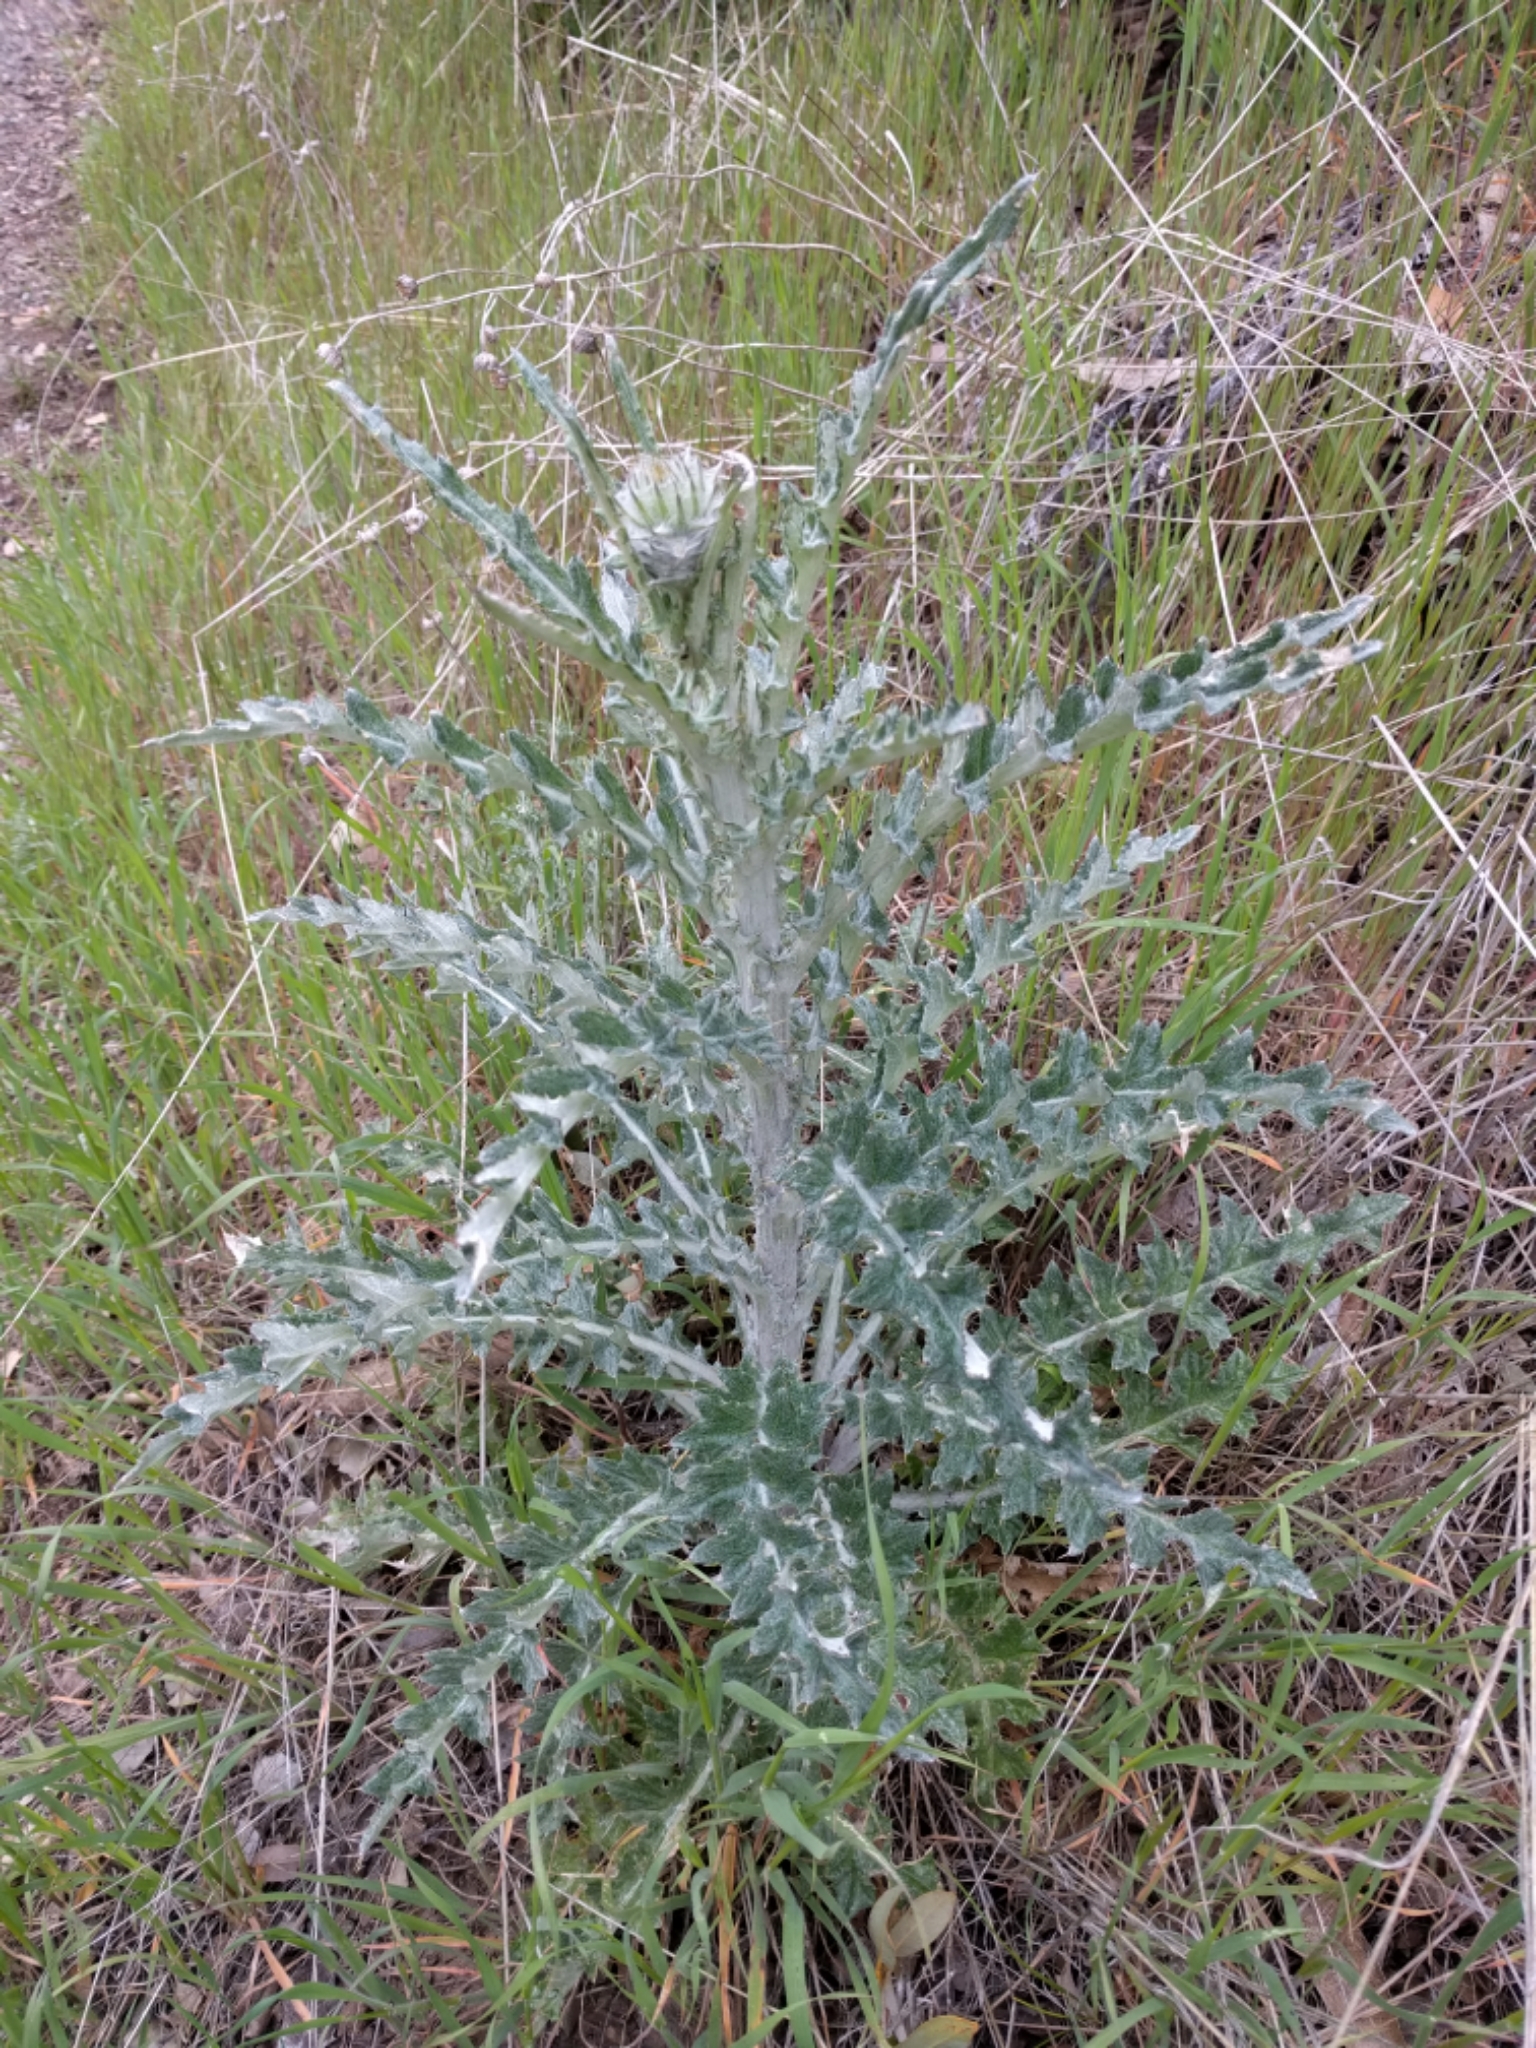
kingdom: Plantae
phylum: Tracheophyta
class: Magnoliopsida
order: Asterales
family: Asteraceae
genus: Cirsium
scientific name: Cirsium occidentale
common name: Western thistle
